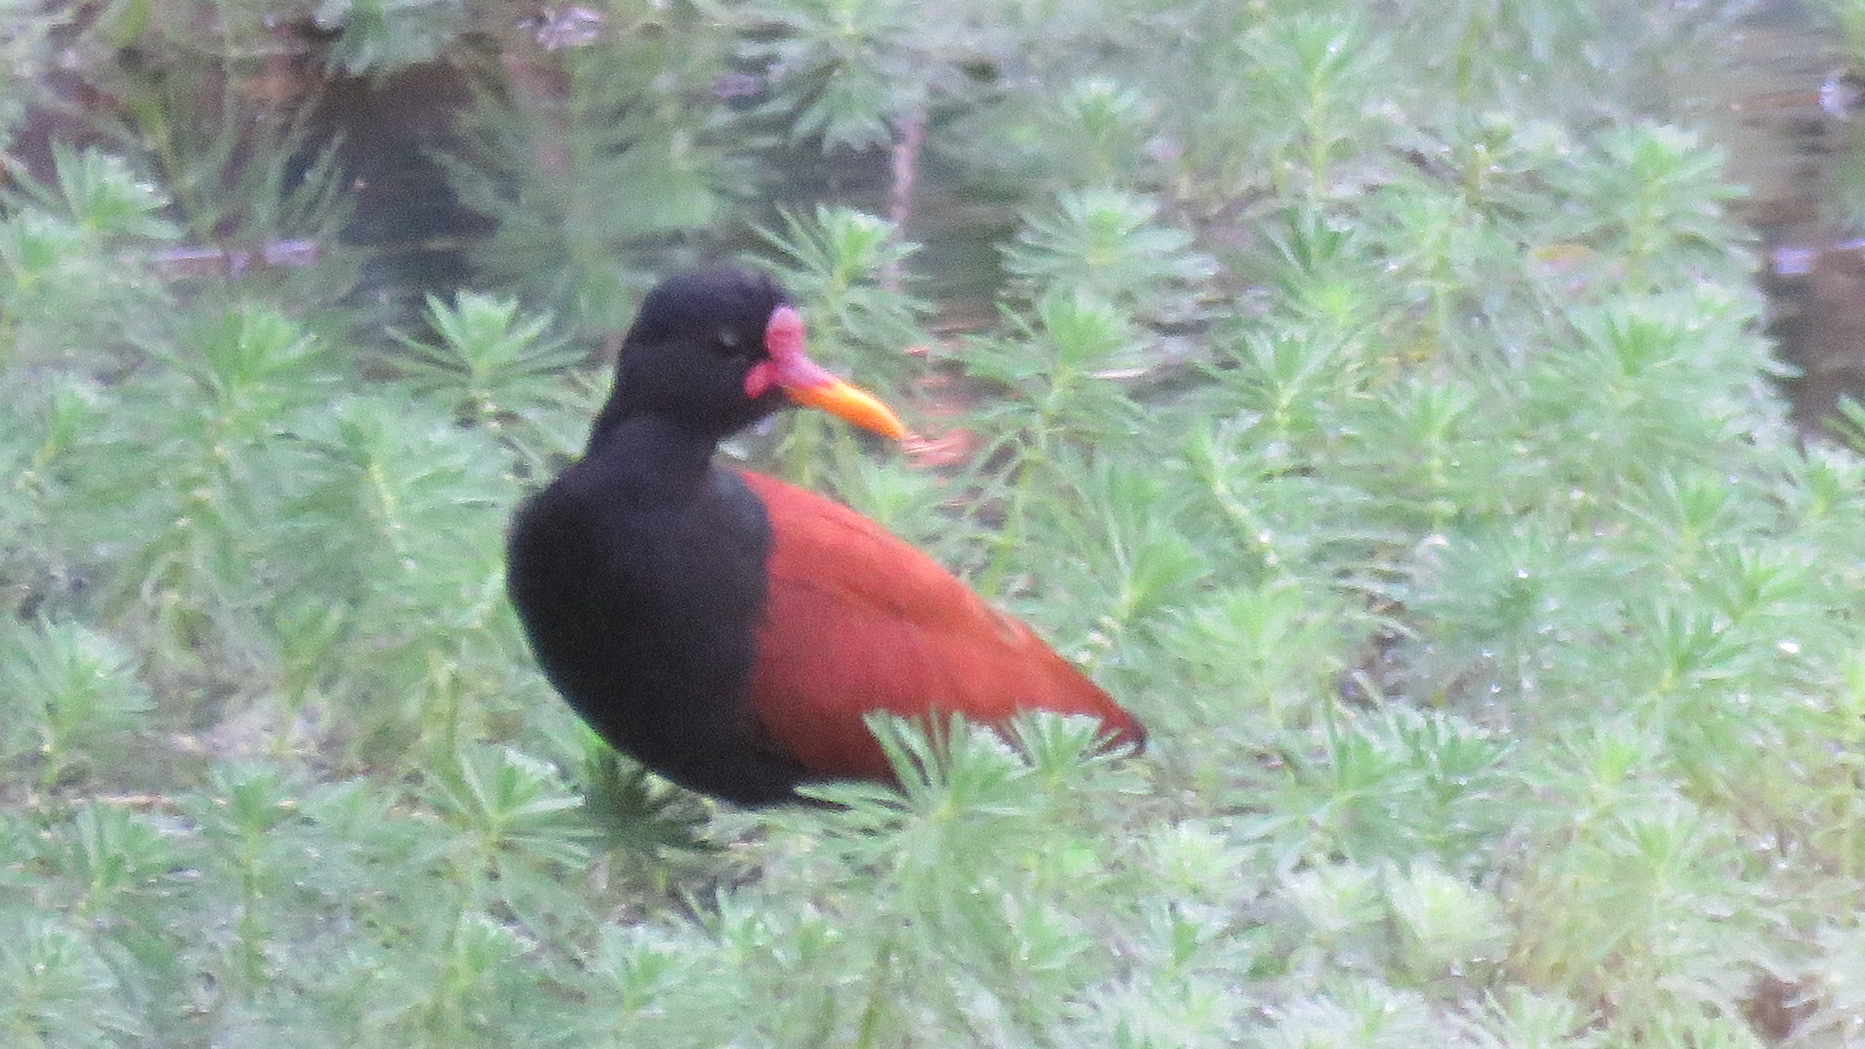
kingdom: Animalia
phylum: Chordata
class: Aves
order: Charadriiformes
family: Jacanidae
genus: Jacana
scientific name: Jacana jacana
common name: Wattled jacana
